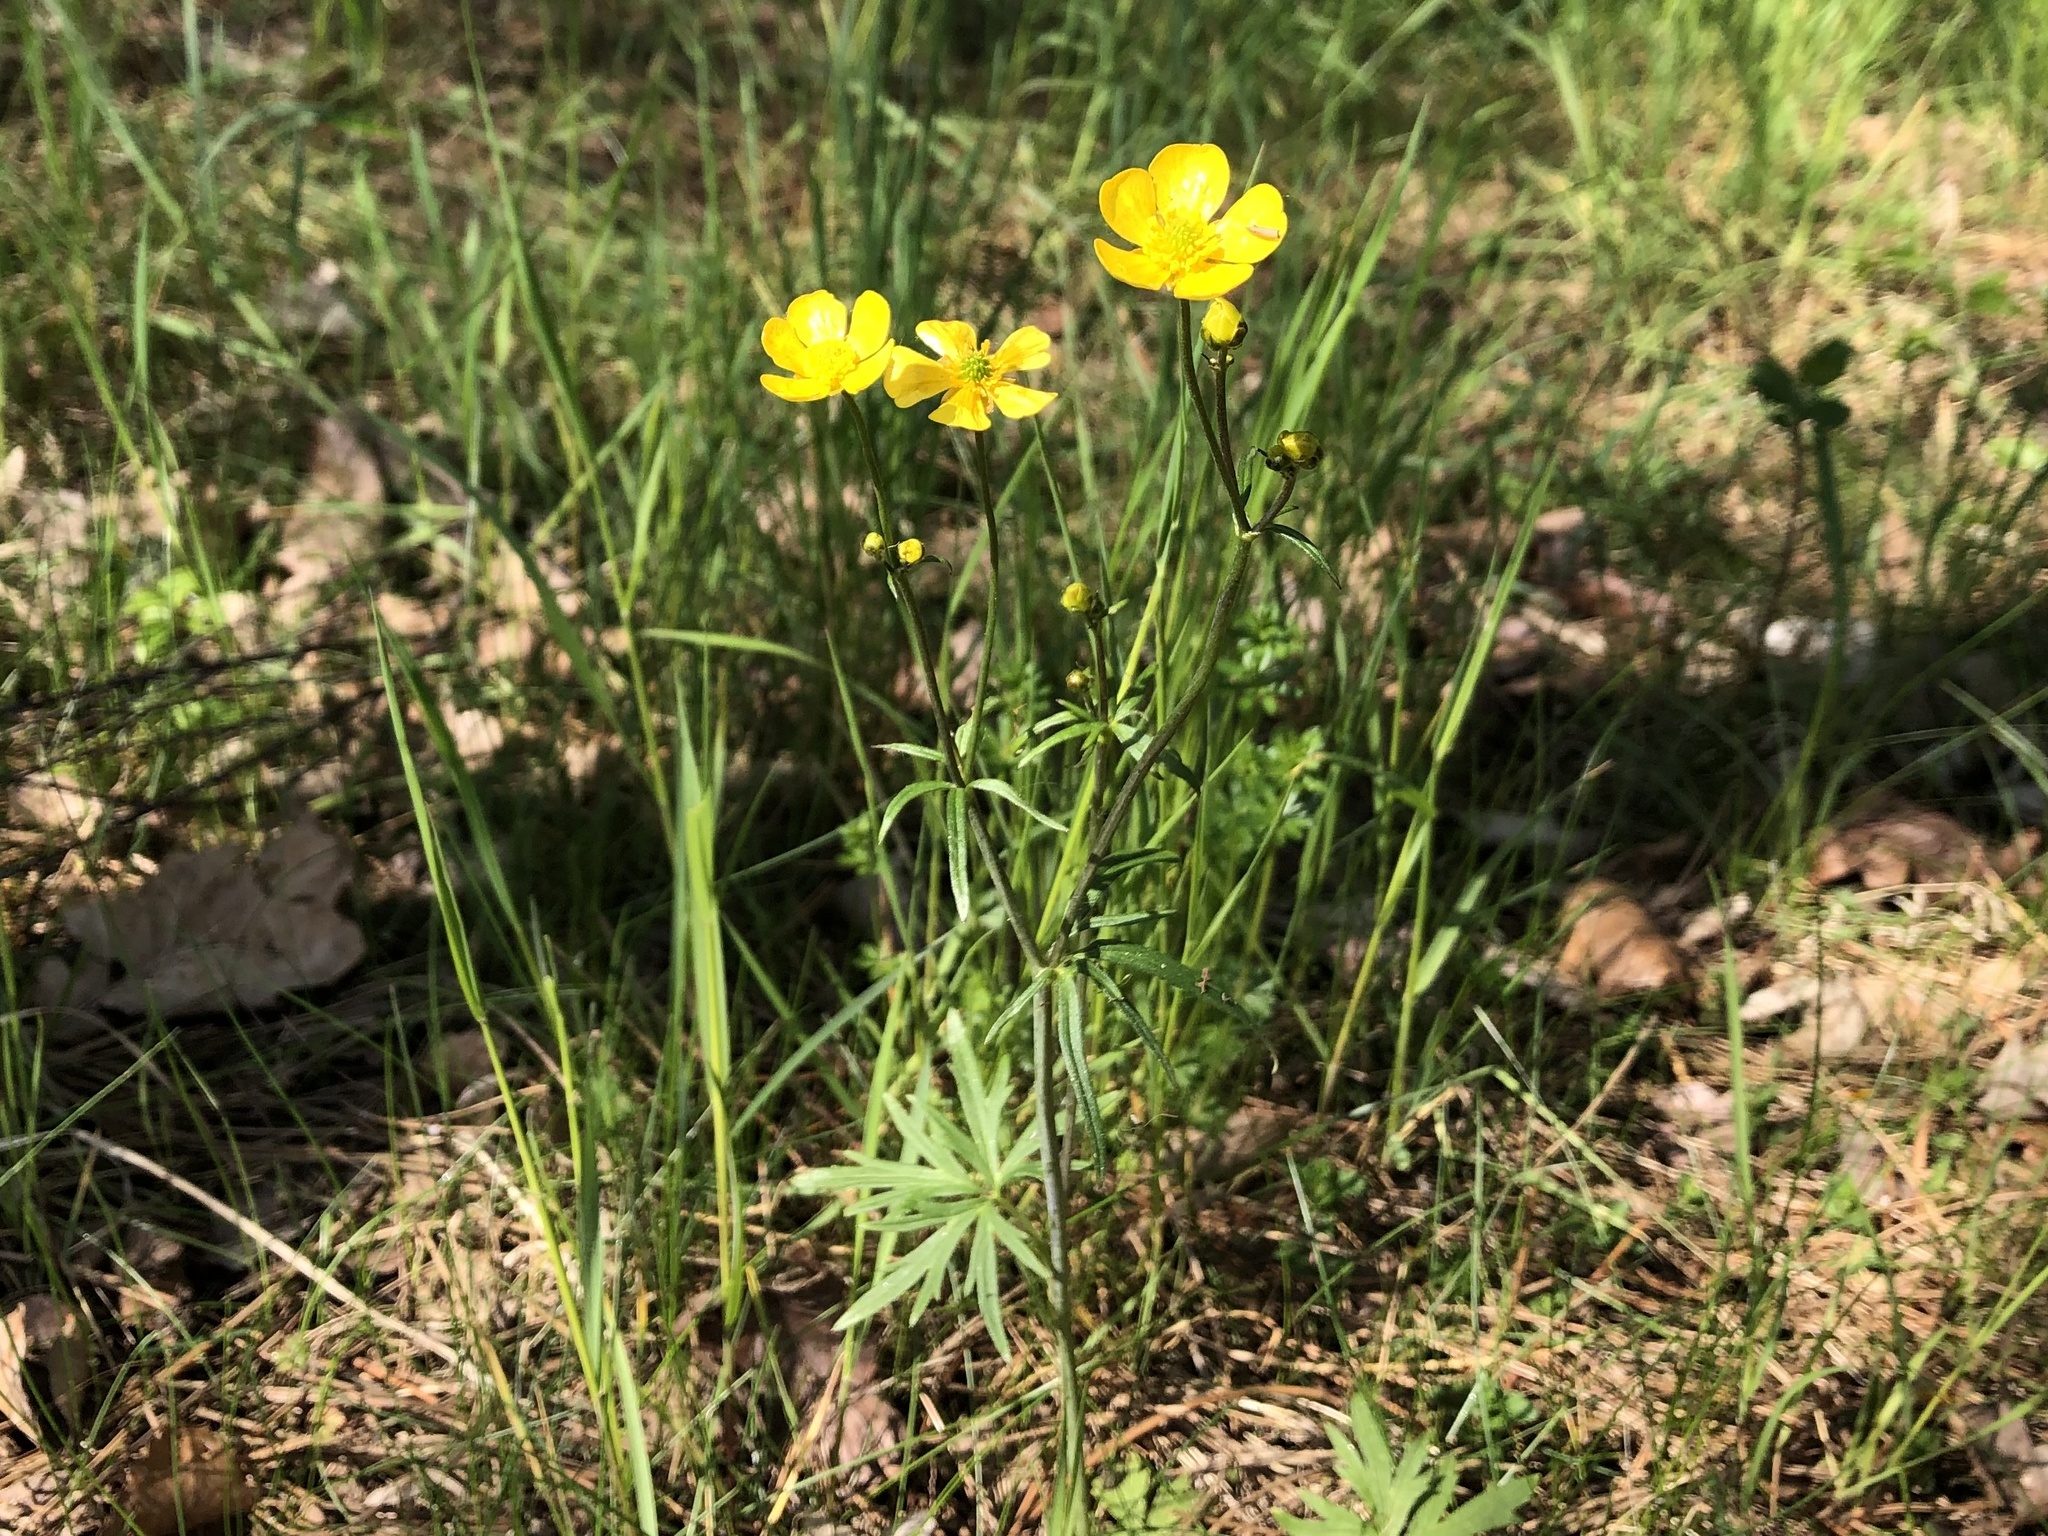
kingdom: Plantae
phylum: Tracheophyta
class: Magnoliopsida
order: Ranunculales
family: Ranunculaceae
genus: Ranunculus
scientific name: Ranunculus acris
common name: Meadow buttercup
